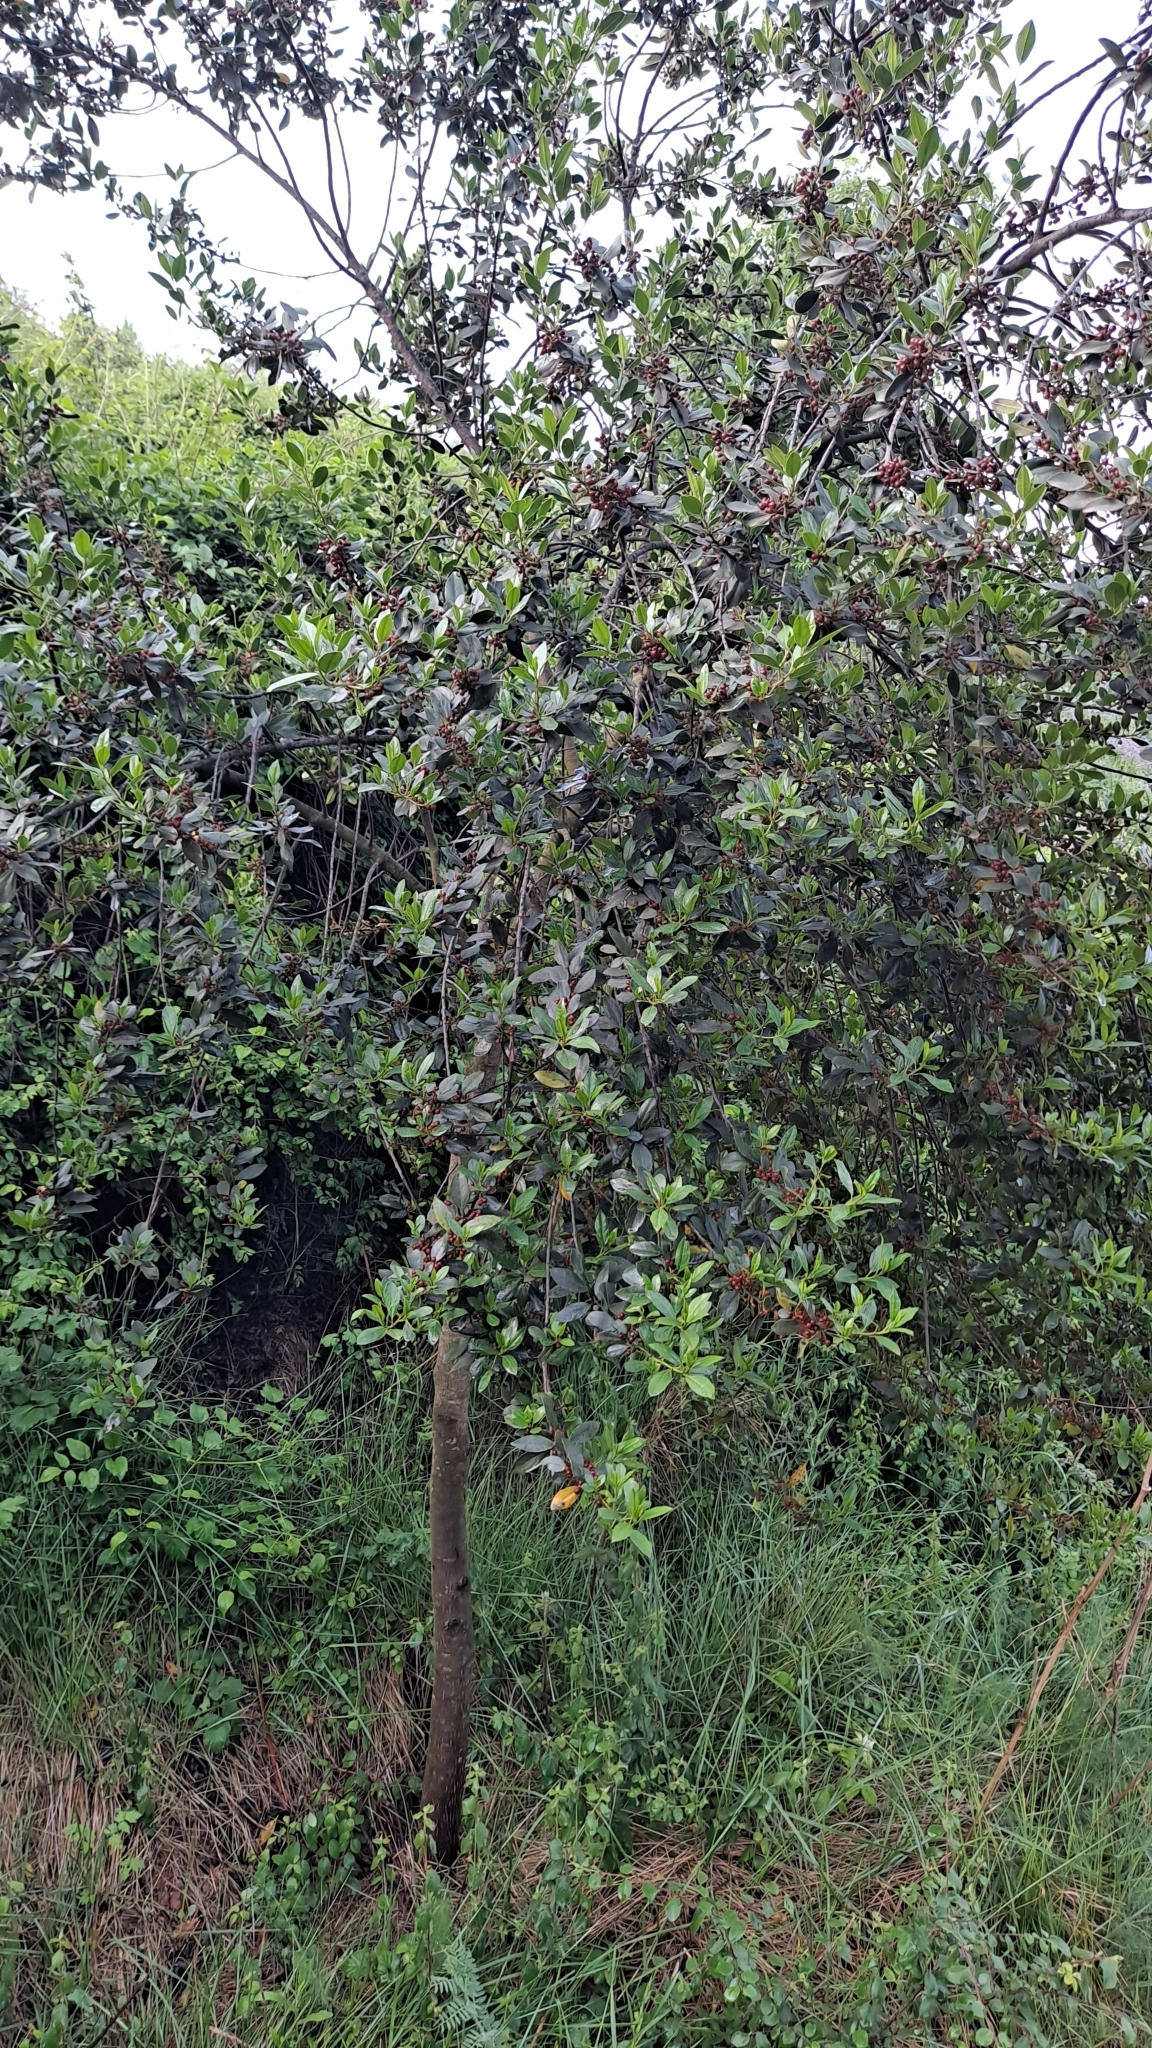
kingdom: Plantae
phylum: Tracheophyta
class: Magnoliopsida
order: Rosales
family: Rhamnaceae
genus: Rhamnus
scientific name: Rhamnus alaternus
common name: Mediterranean buckthorn
